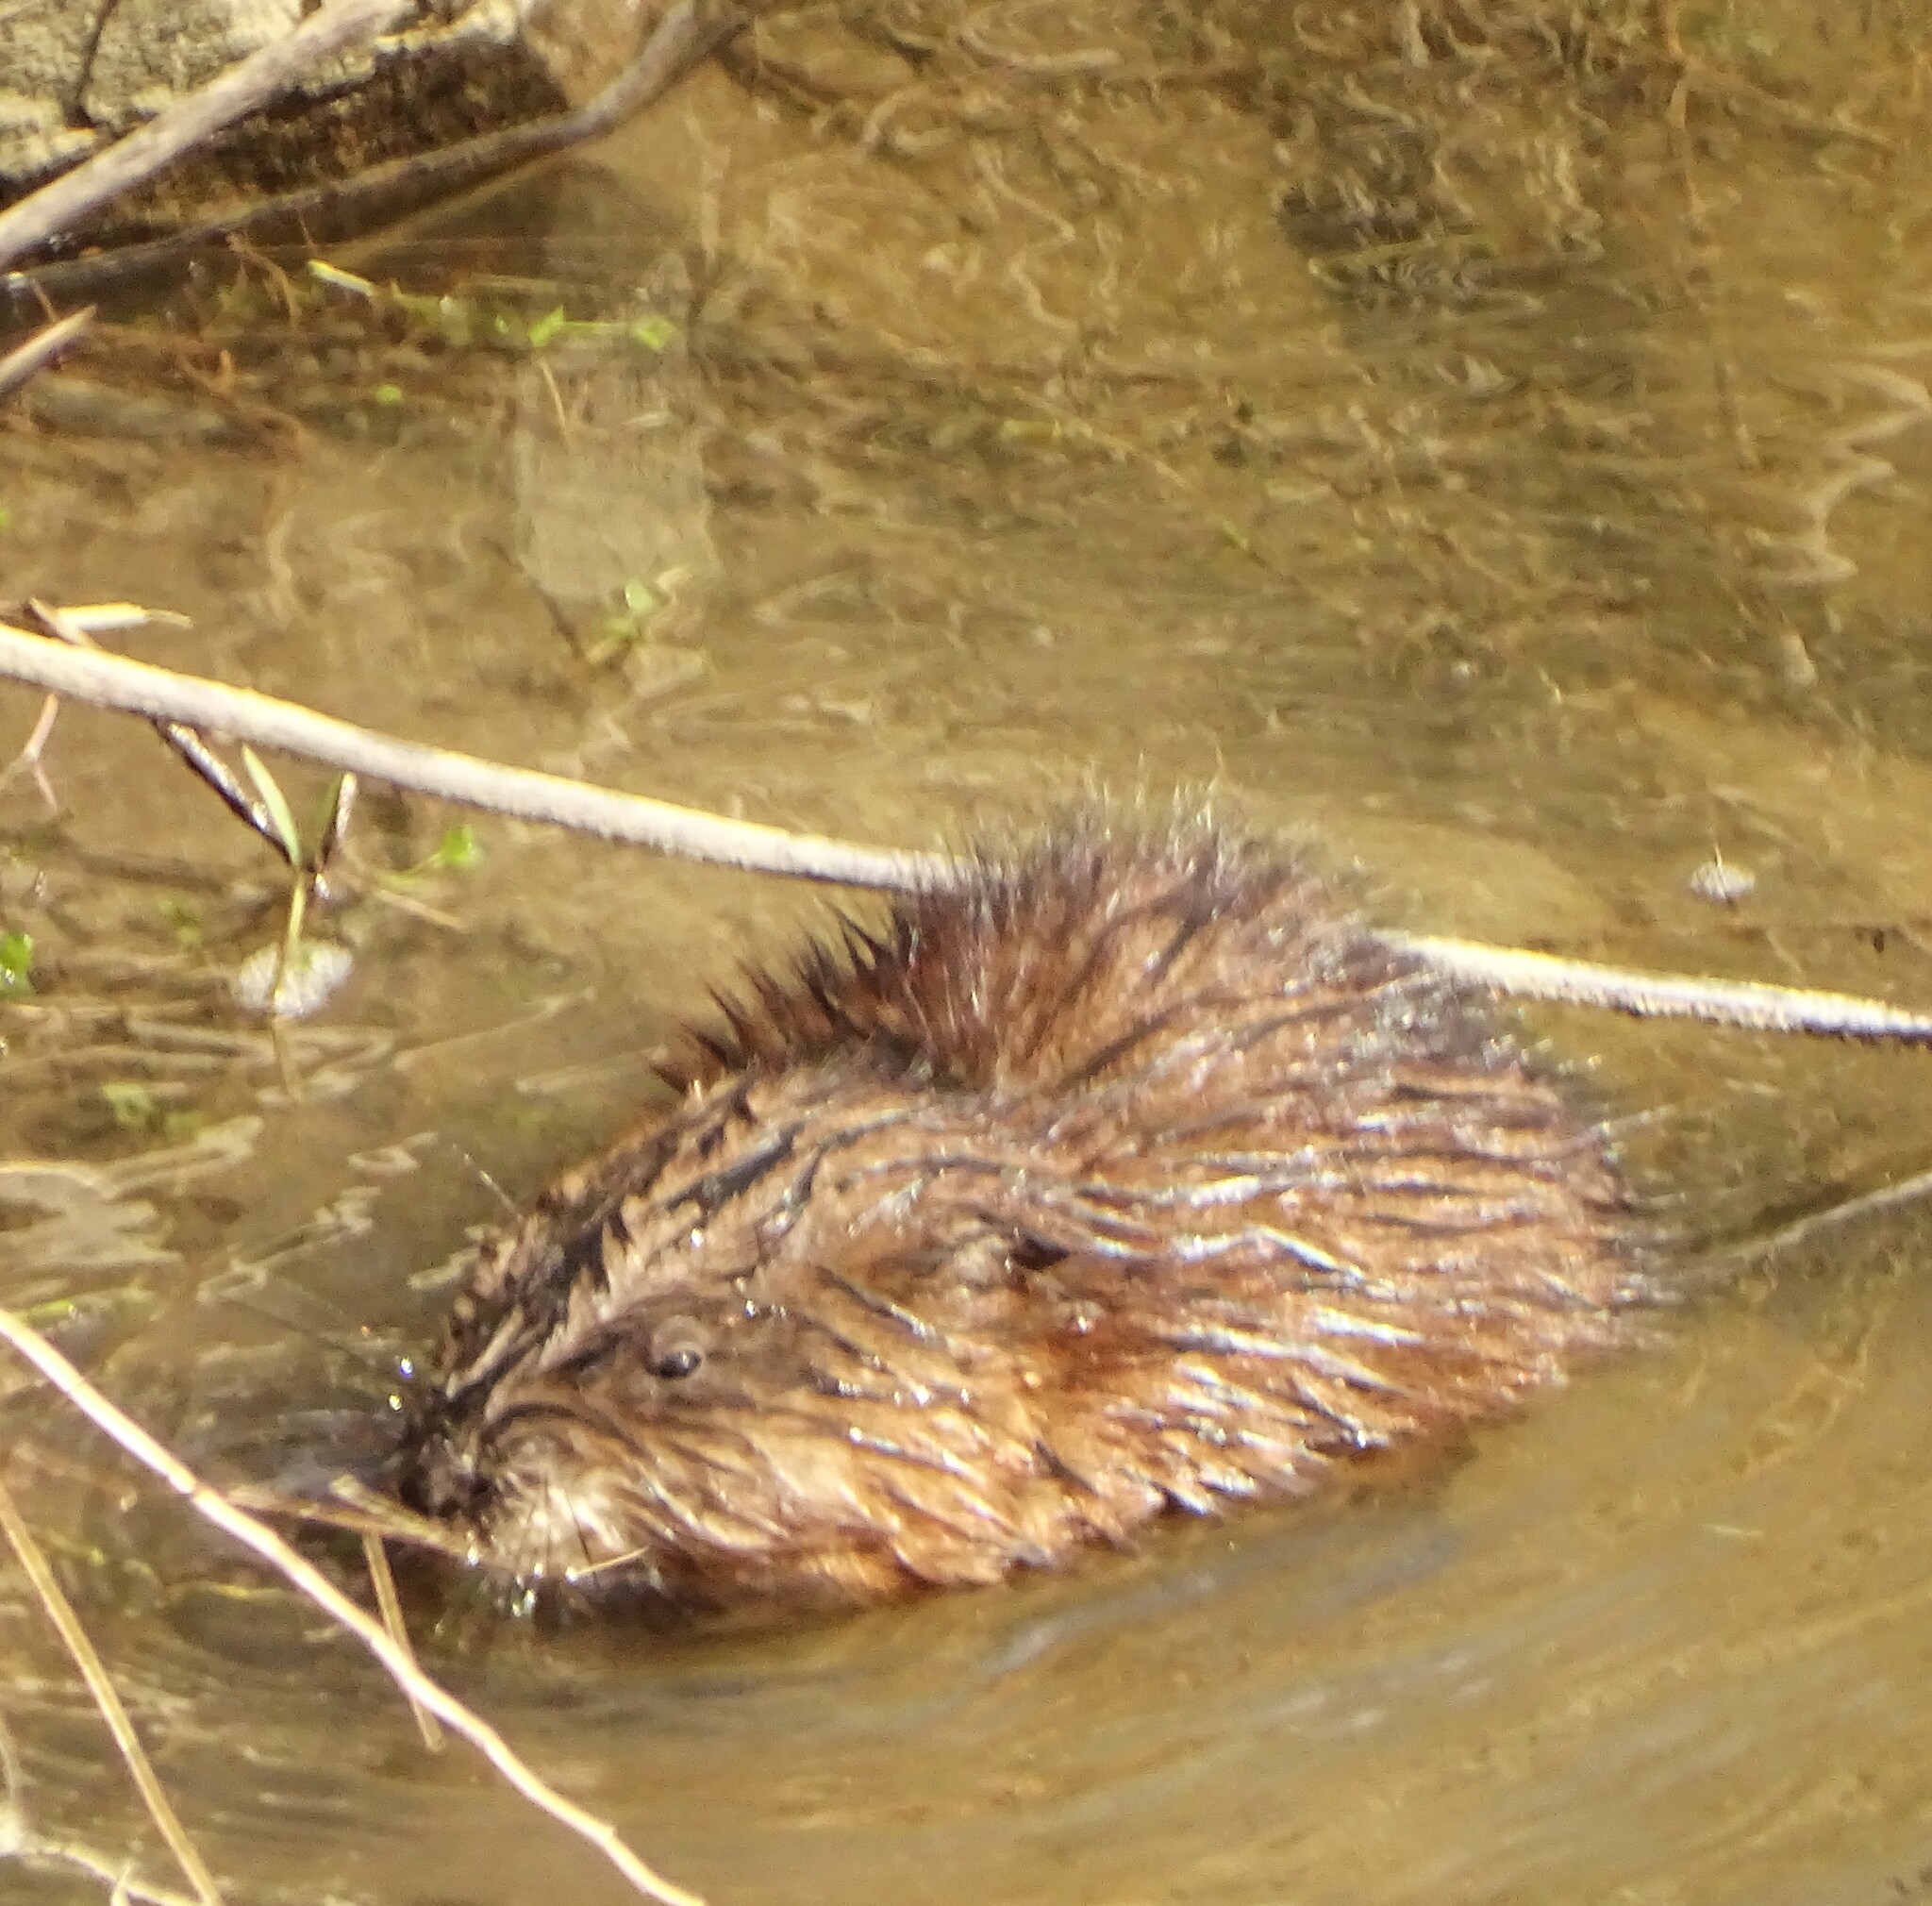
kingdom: Animalia
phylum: Chordata
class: Mammalia
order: Rodentia
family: Cricetidae
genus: Ondatra
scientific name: Ondatra zibethicus
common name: Muskrat
